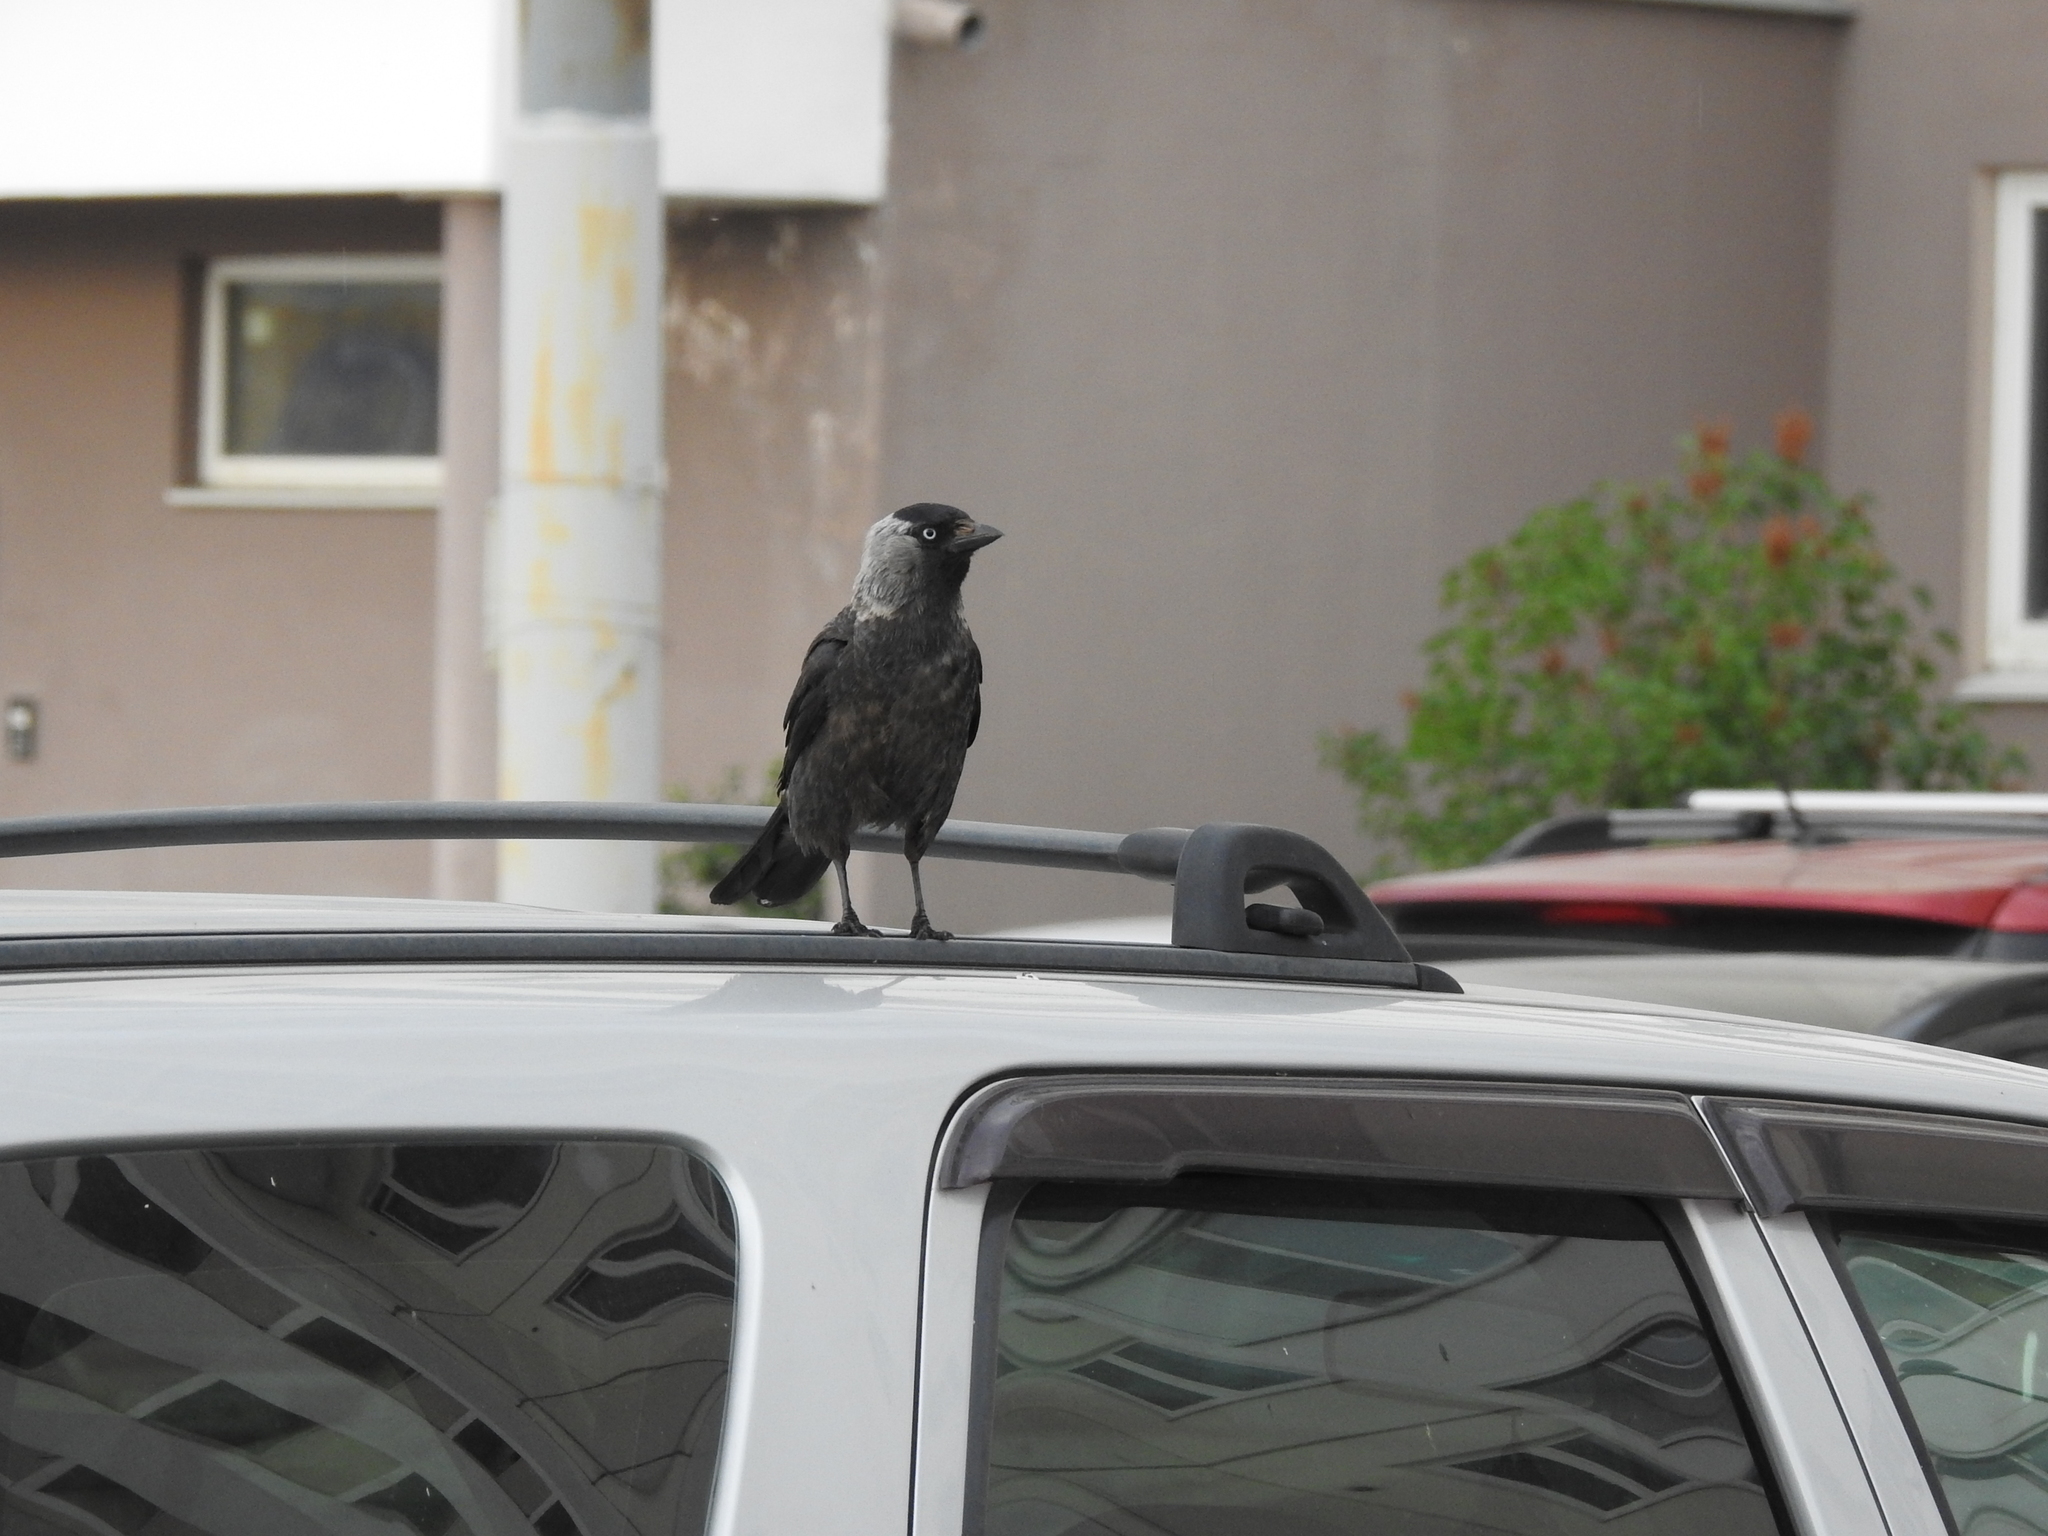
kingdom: Animalia
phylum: Chordata
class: Aves
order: Passeriformes
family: Corvidae
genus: Coloeus
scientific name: Coloeus monedula
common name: Western jackdaw
